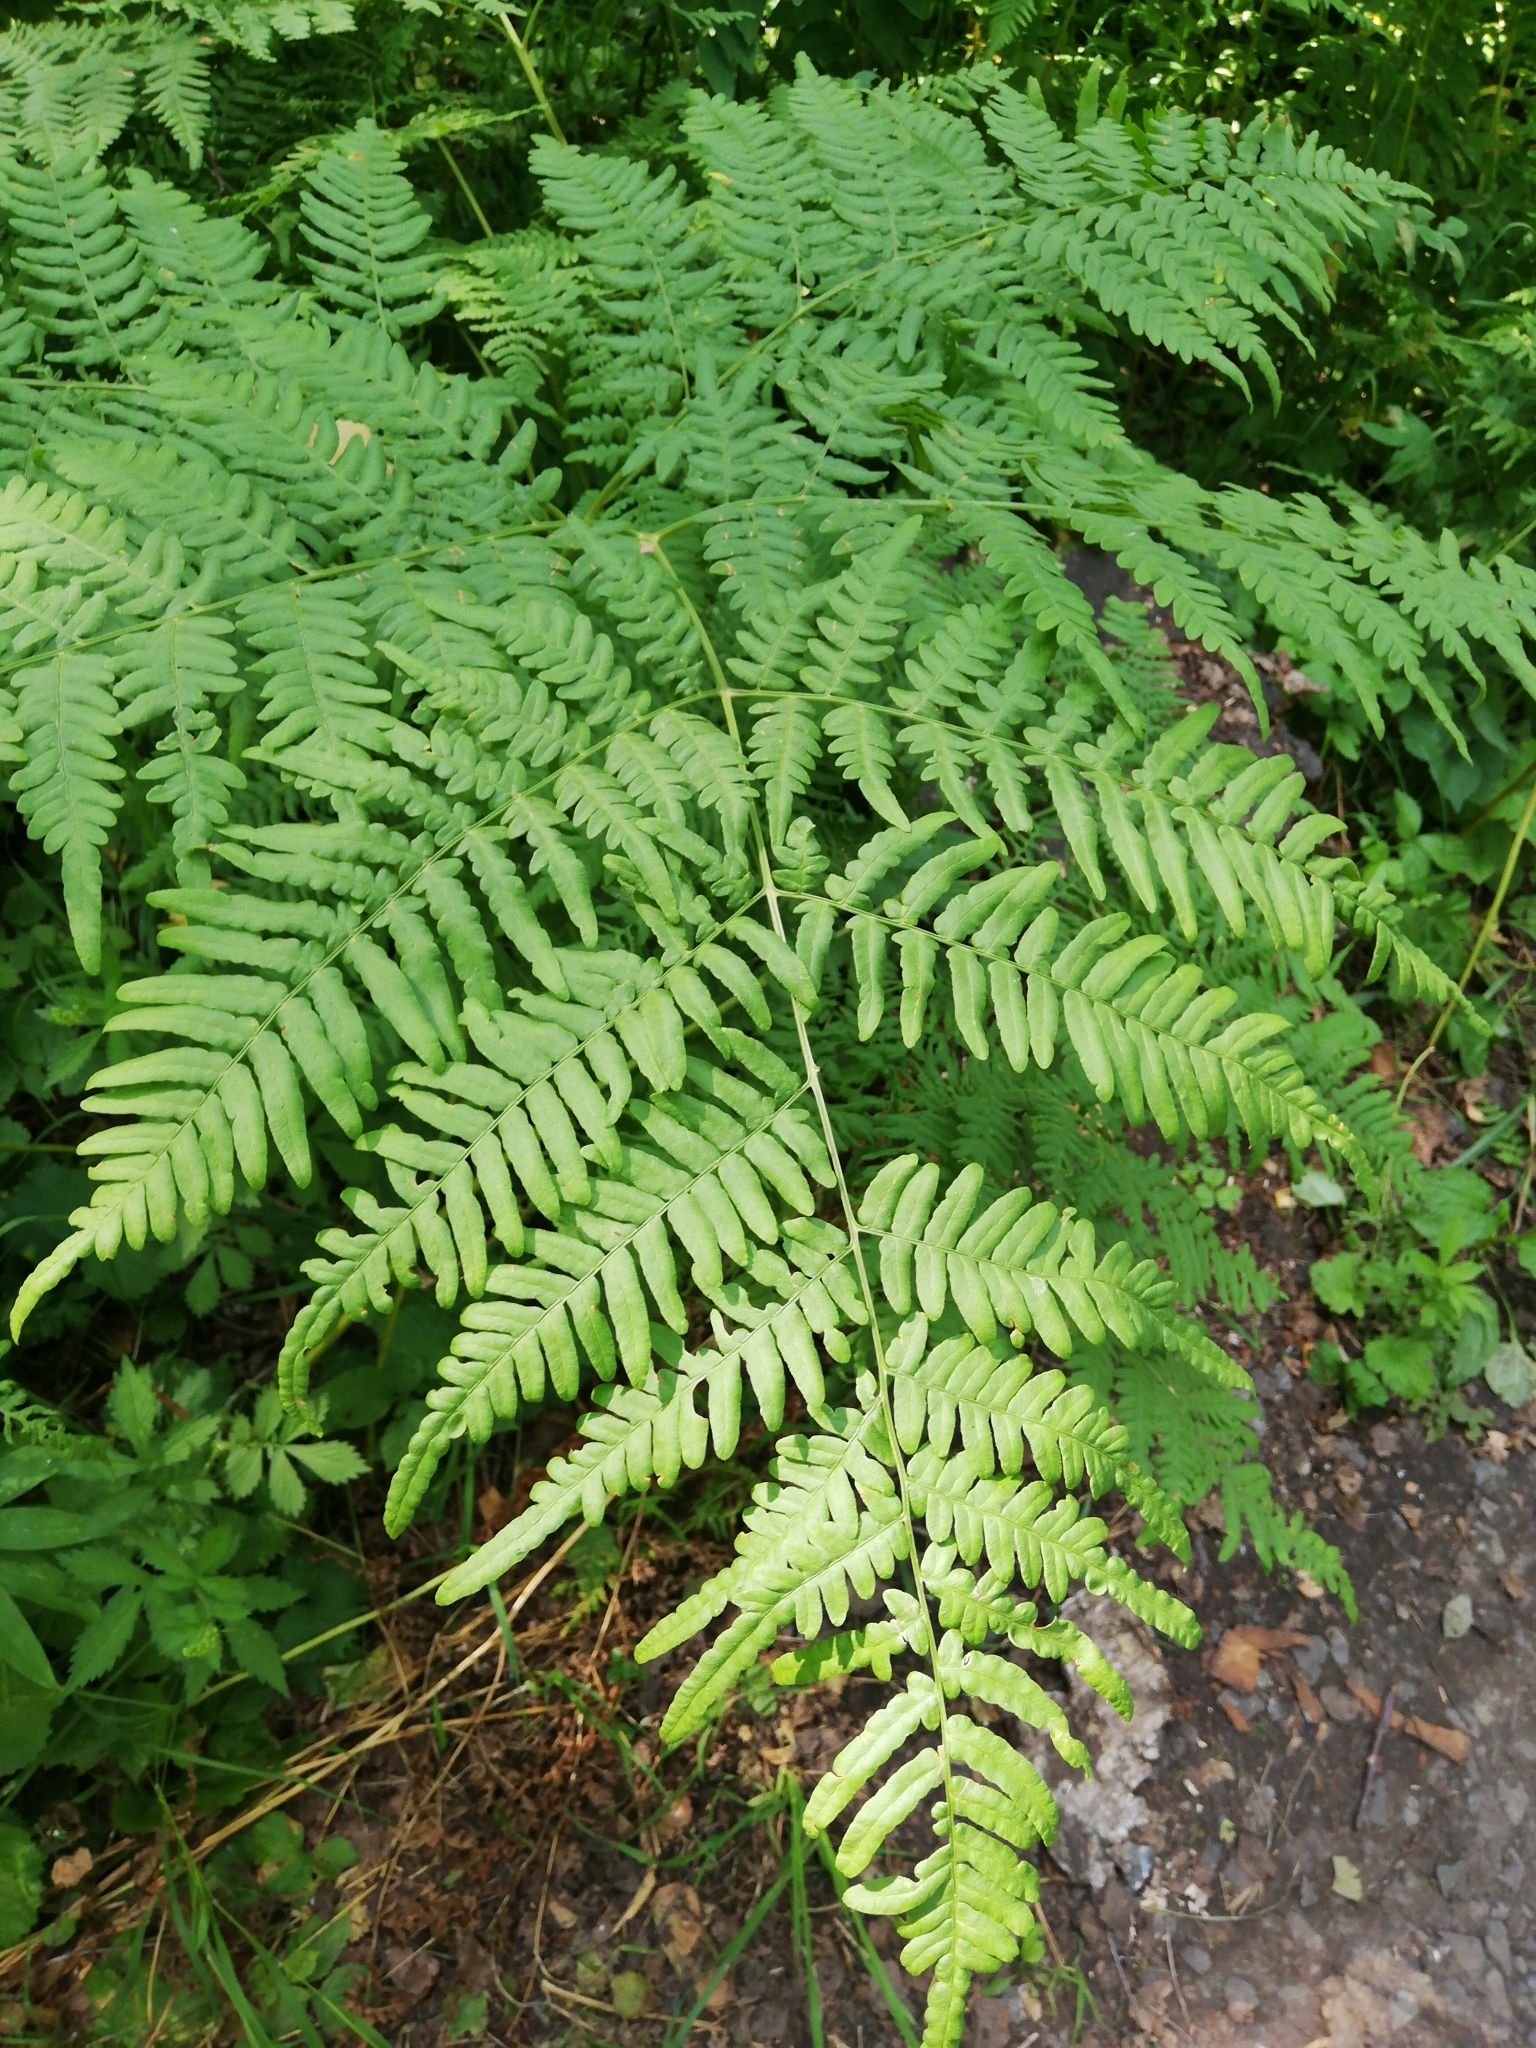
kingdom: Plantae
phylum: Tracheophyta
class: Polypodiopsida
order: Polypodiales
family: Dennstaedtiaceae
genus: Pteridium
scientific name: Pteridium aquilinum
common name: Bracken
